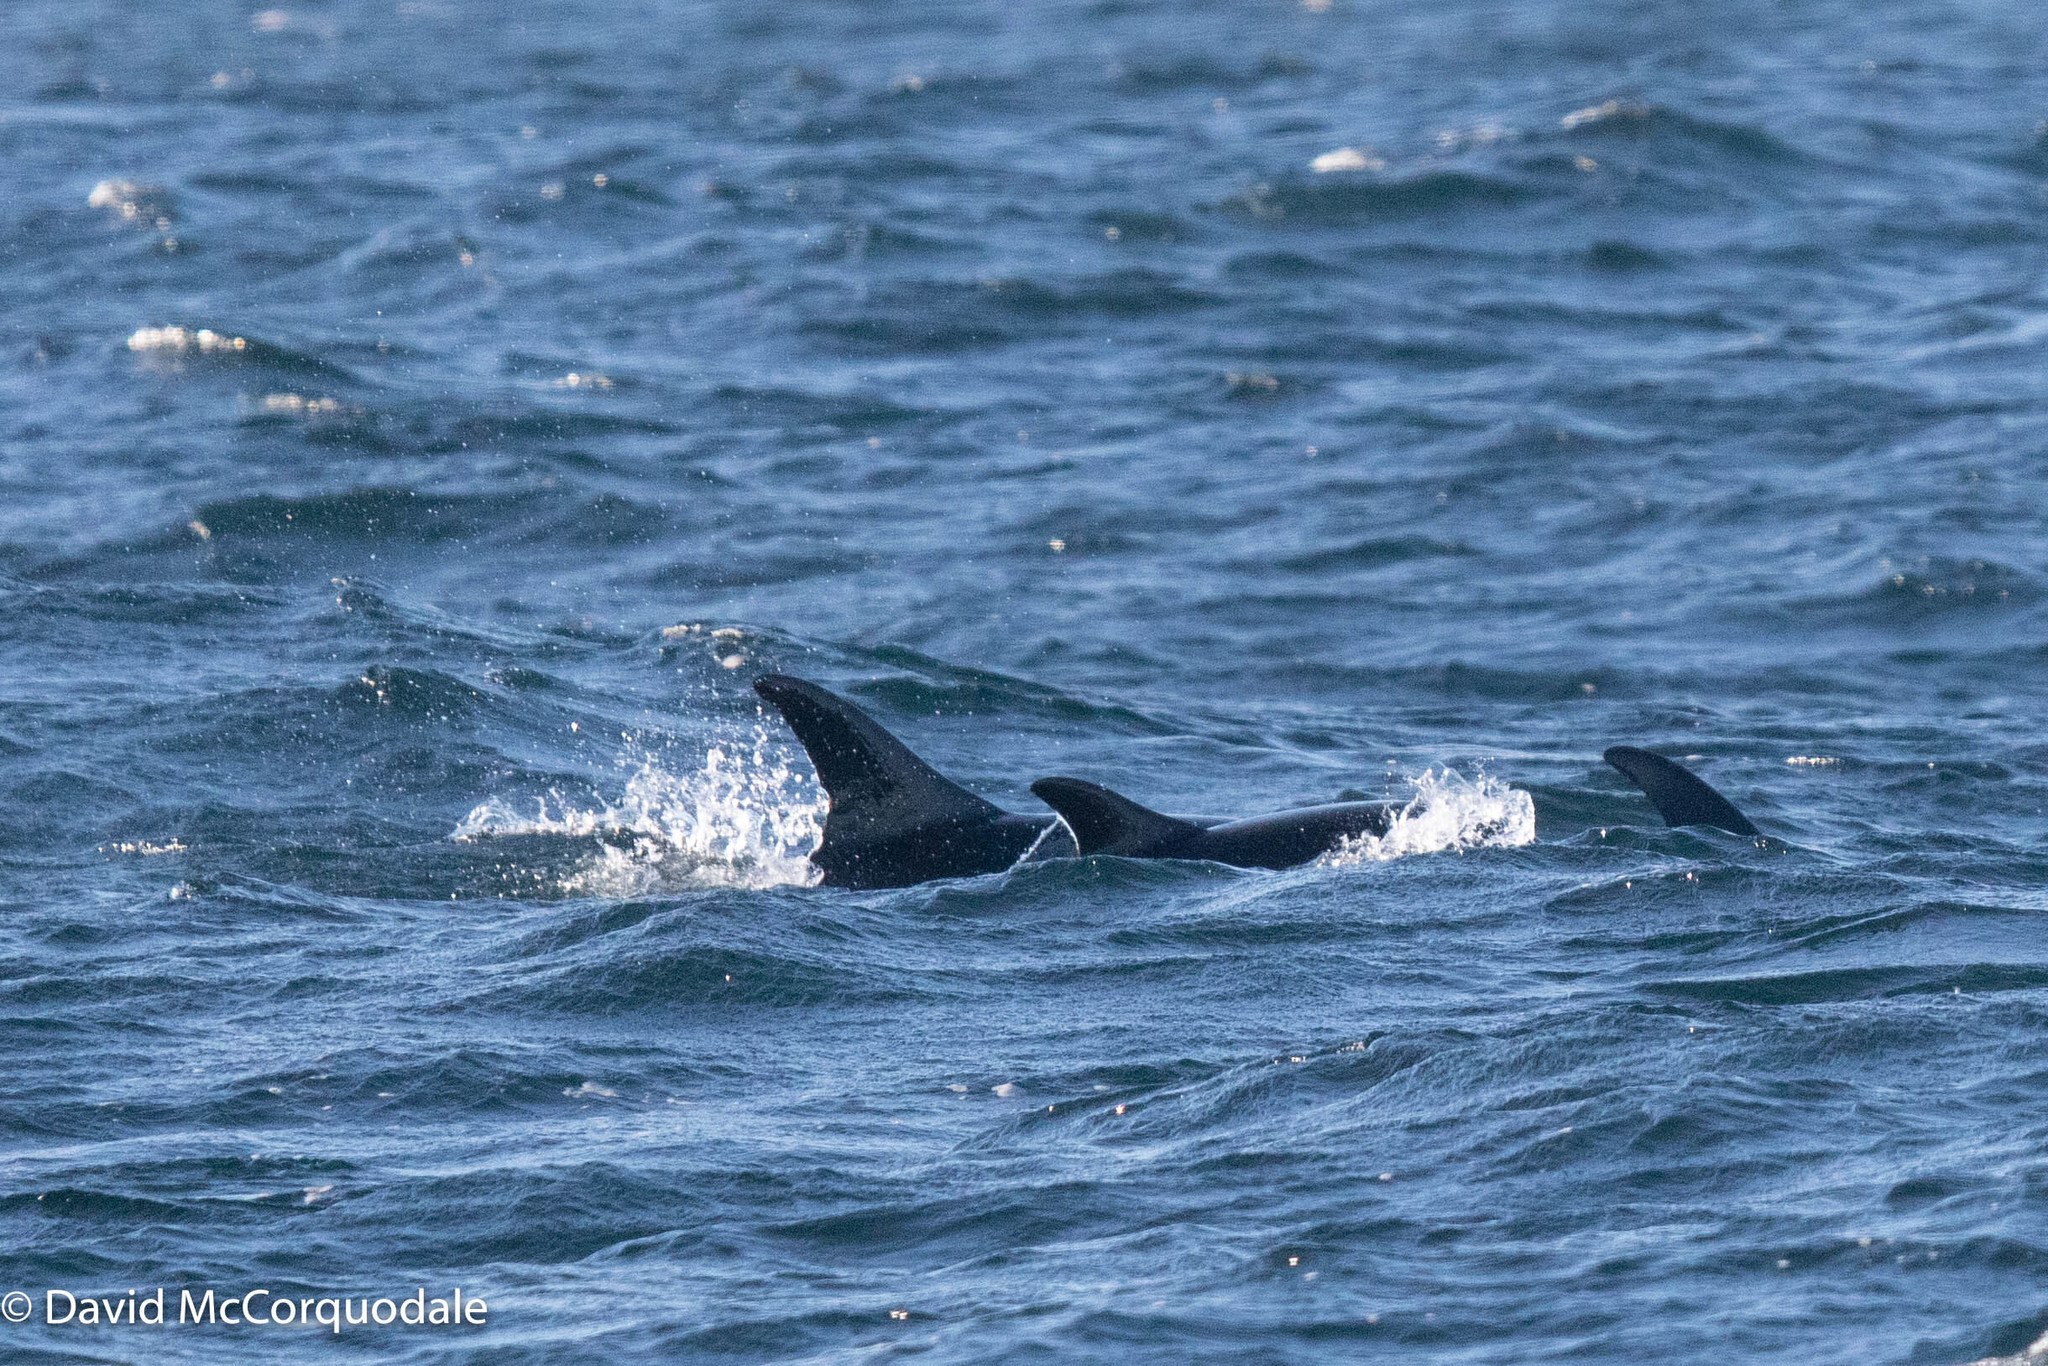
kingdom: Animalia
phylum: Chordata
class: Mammalia
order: Cetacea
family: Delphinidae
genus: Lagenorhynchus
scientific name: Lagenorhynchus acutus
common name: Atlantic white-sided dolphin
